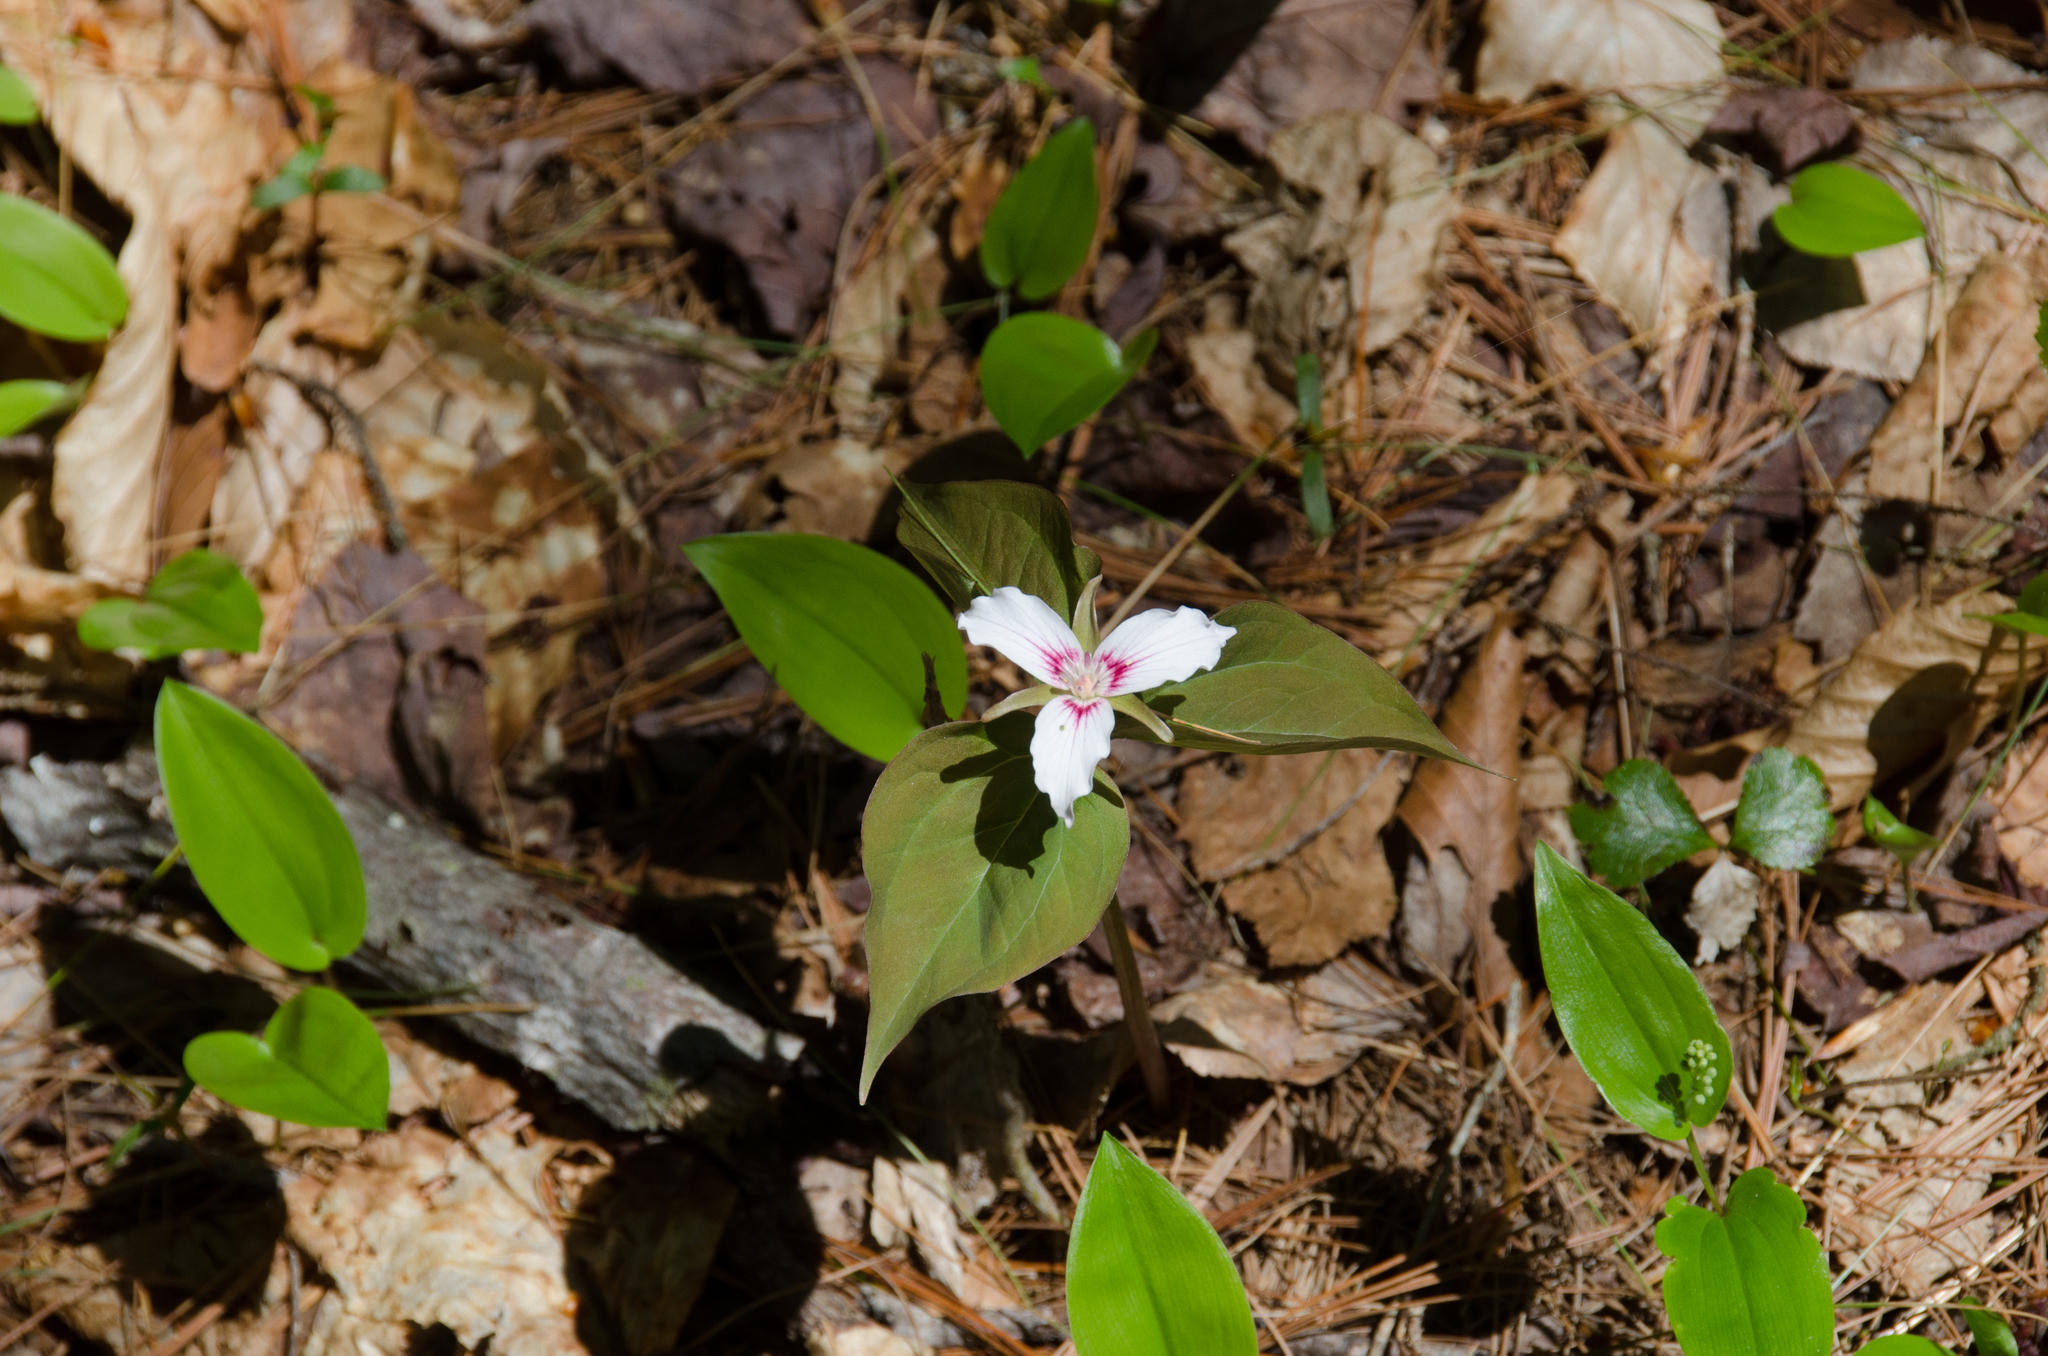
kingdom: Plantae
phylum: Tracheophyta
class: Liliopsida
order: Liliales
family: Melanthiaceae
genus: Trillium
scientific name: Trillium undulatum
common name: Paint trillium
